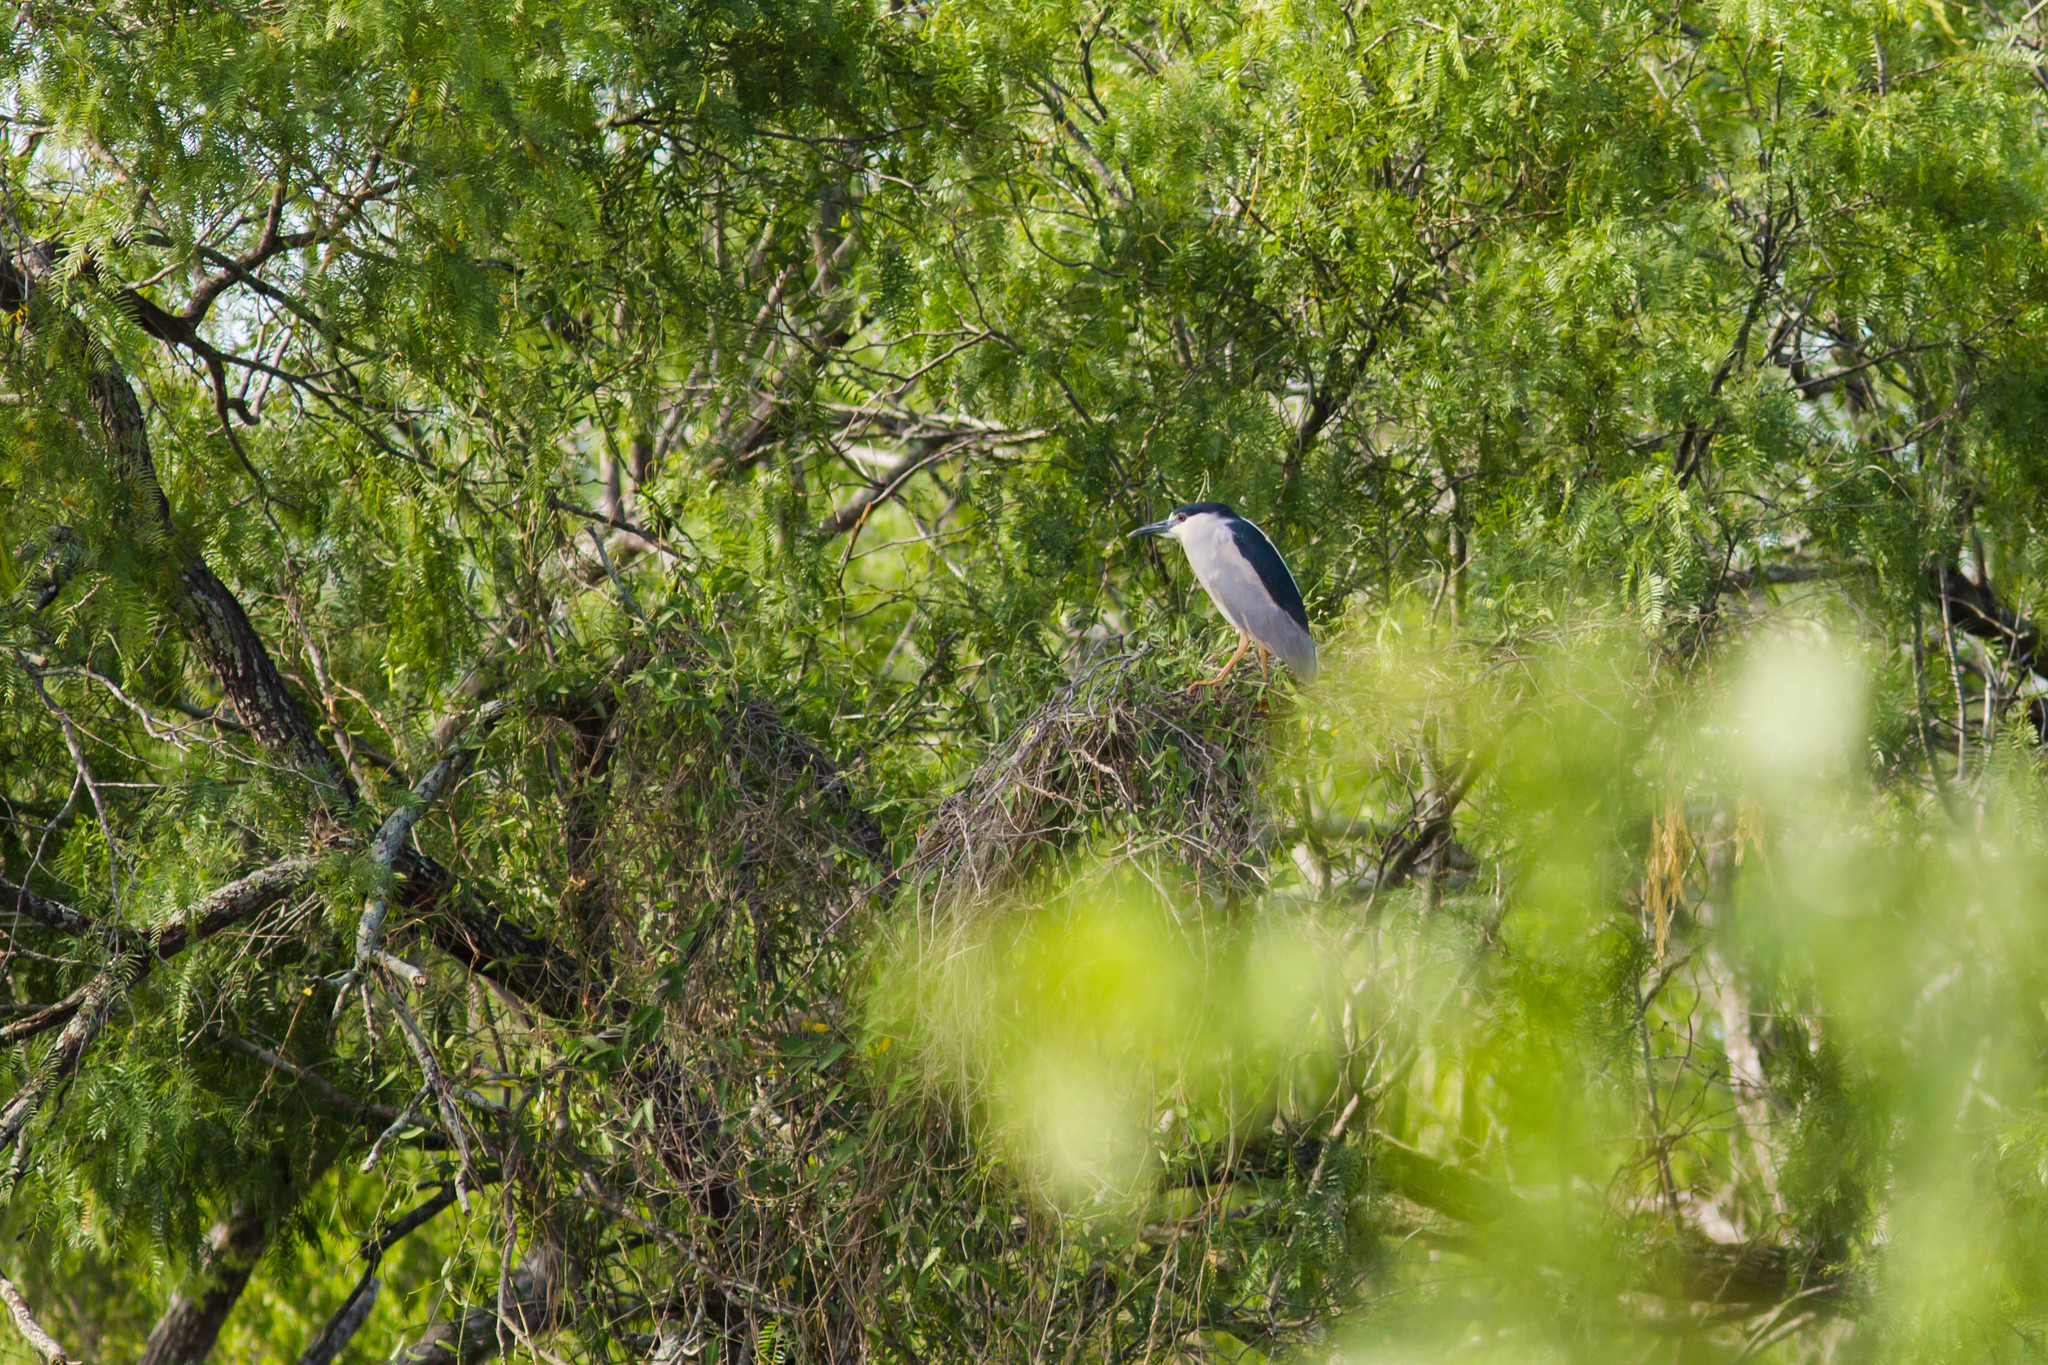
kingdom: Animalia
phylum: Chordata
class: Aves
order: Pelecaniformes
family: Ardeidae
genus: Nycticorax
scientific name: Nycticorax nycticorax
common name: Black-crowned night heron
